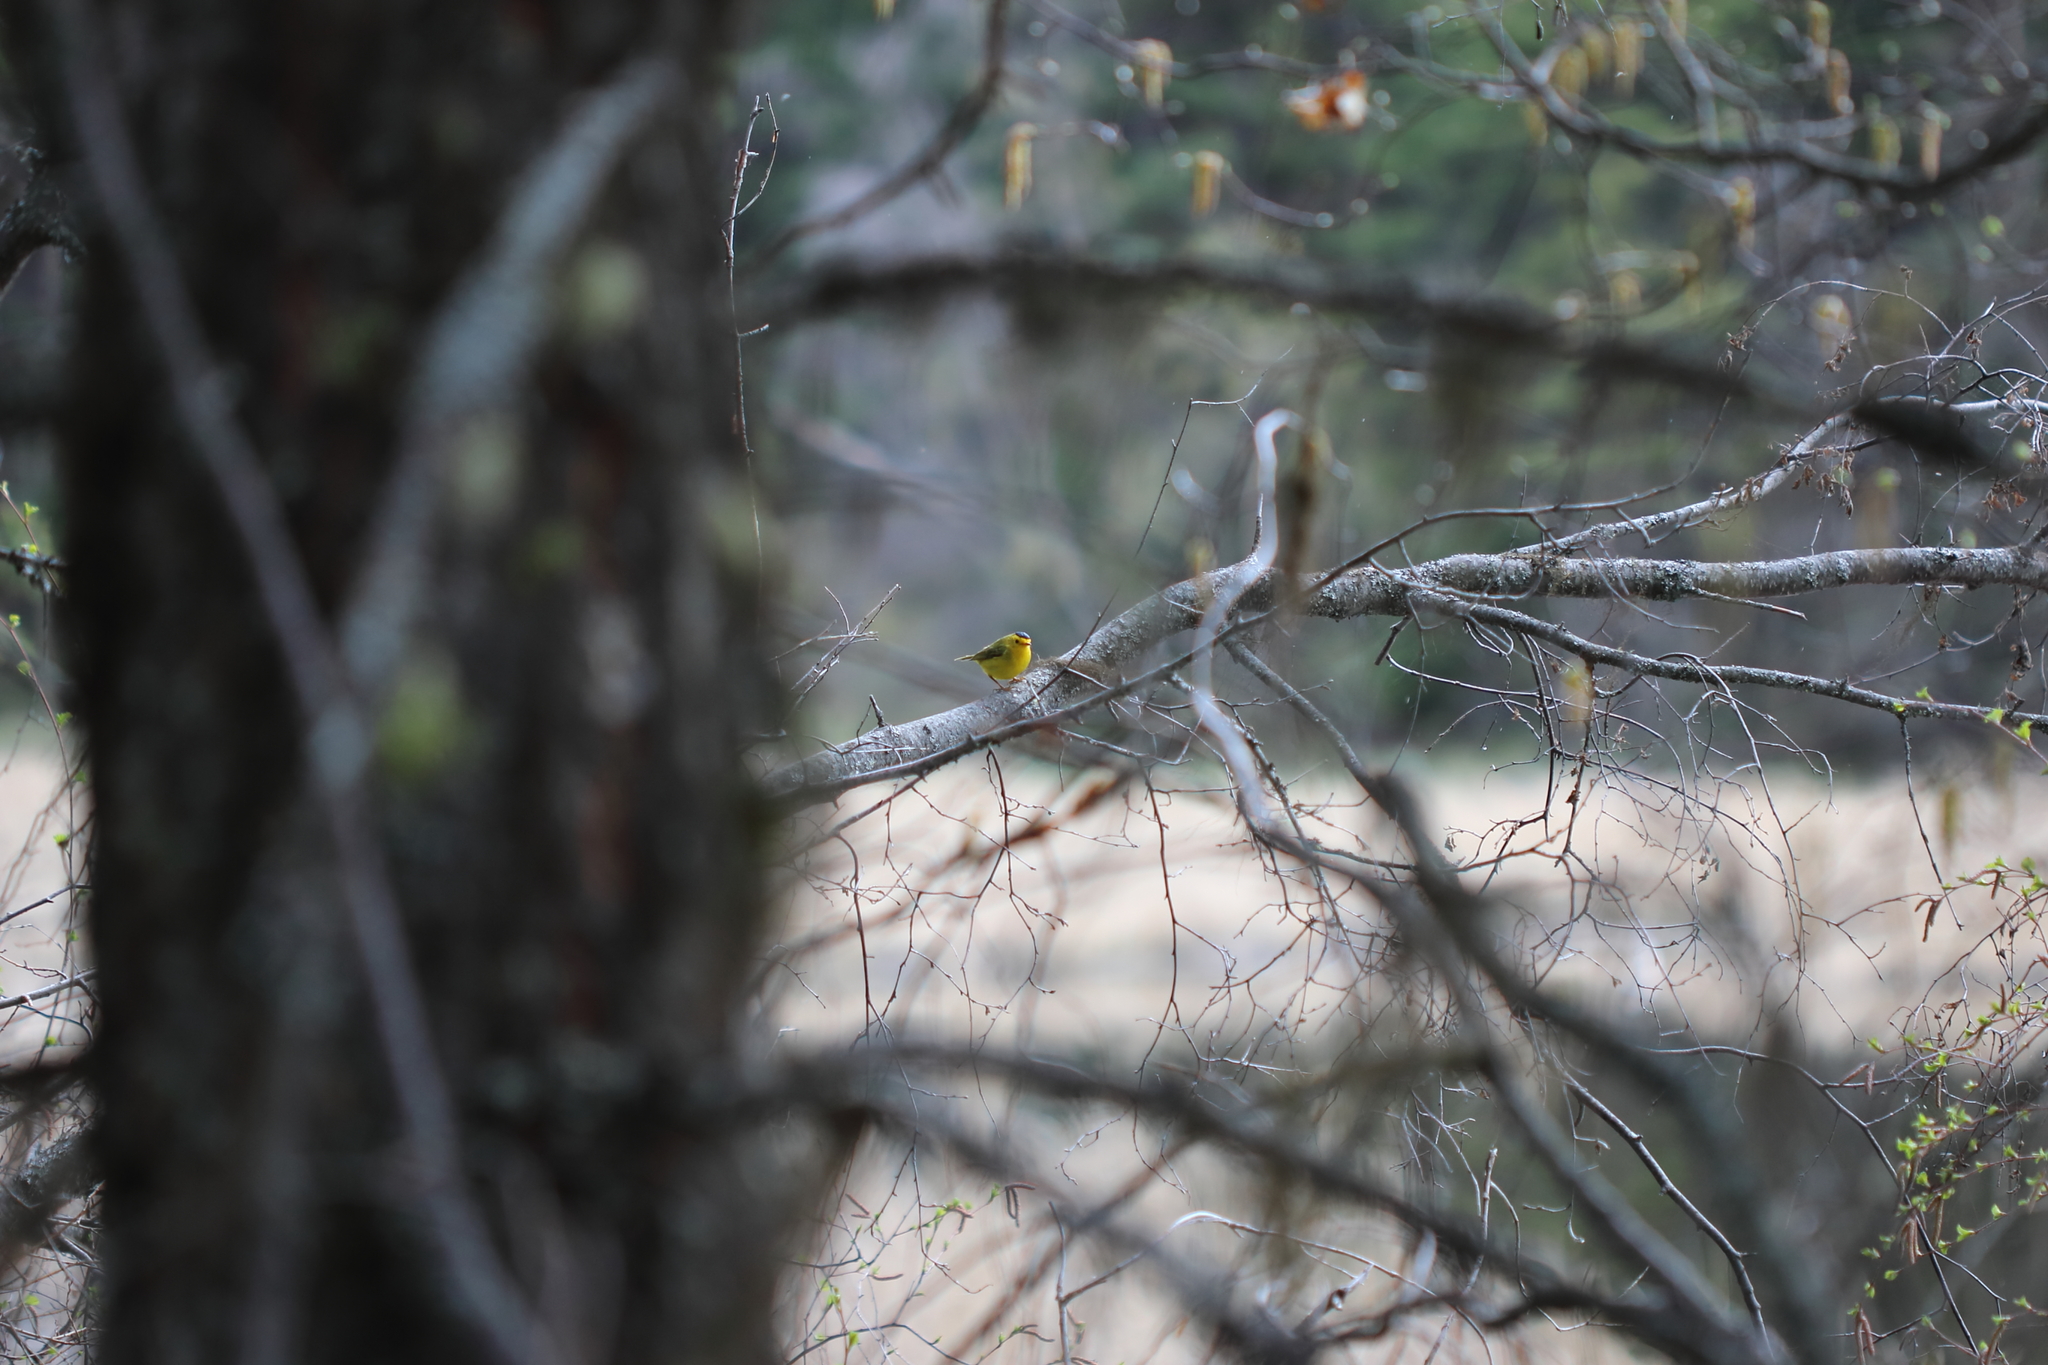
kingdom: Animalia
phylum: Chordata
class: Aves
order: Passeriformes
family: Parulidae
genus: Cardellina
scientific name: Cardellina pusilla
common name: Wilson's warbler
